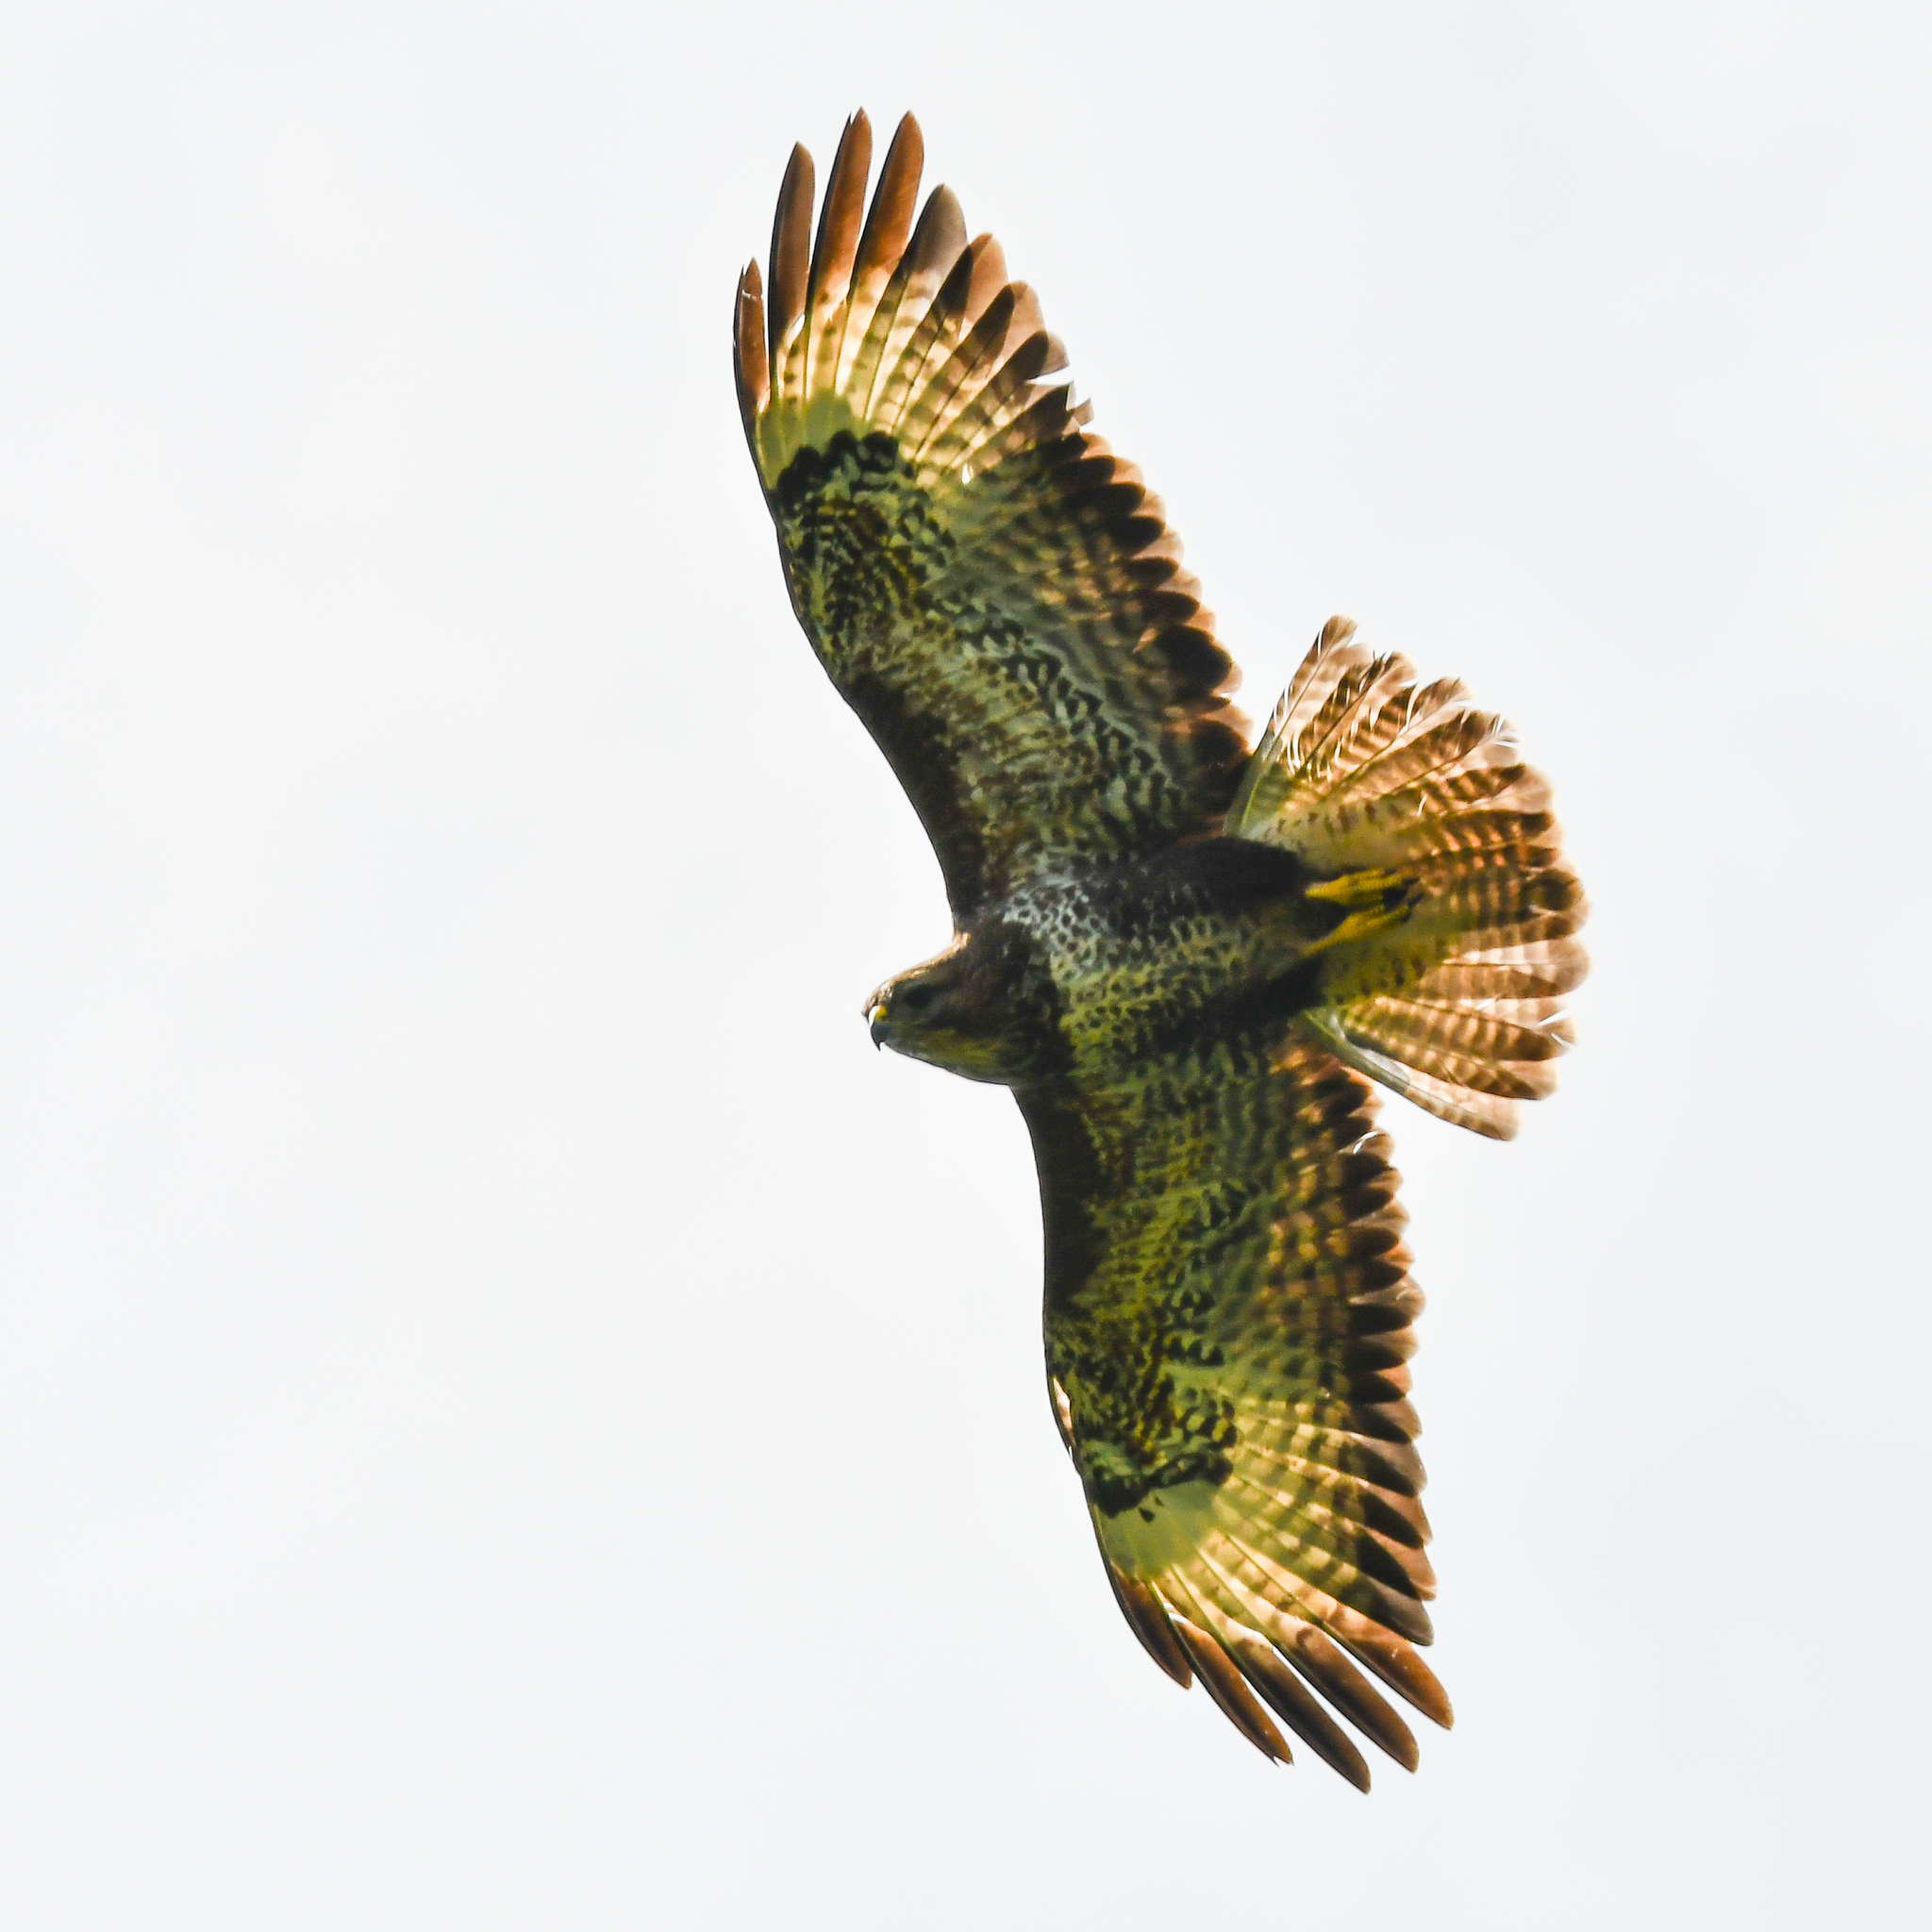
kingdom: Animalia
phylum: Chordata
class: Aves
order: Accipitriformes
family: Accipitridae
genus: Buteo
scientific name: Buteo buteo
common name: Common buzzard
